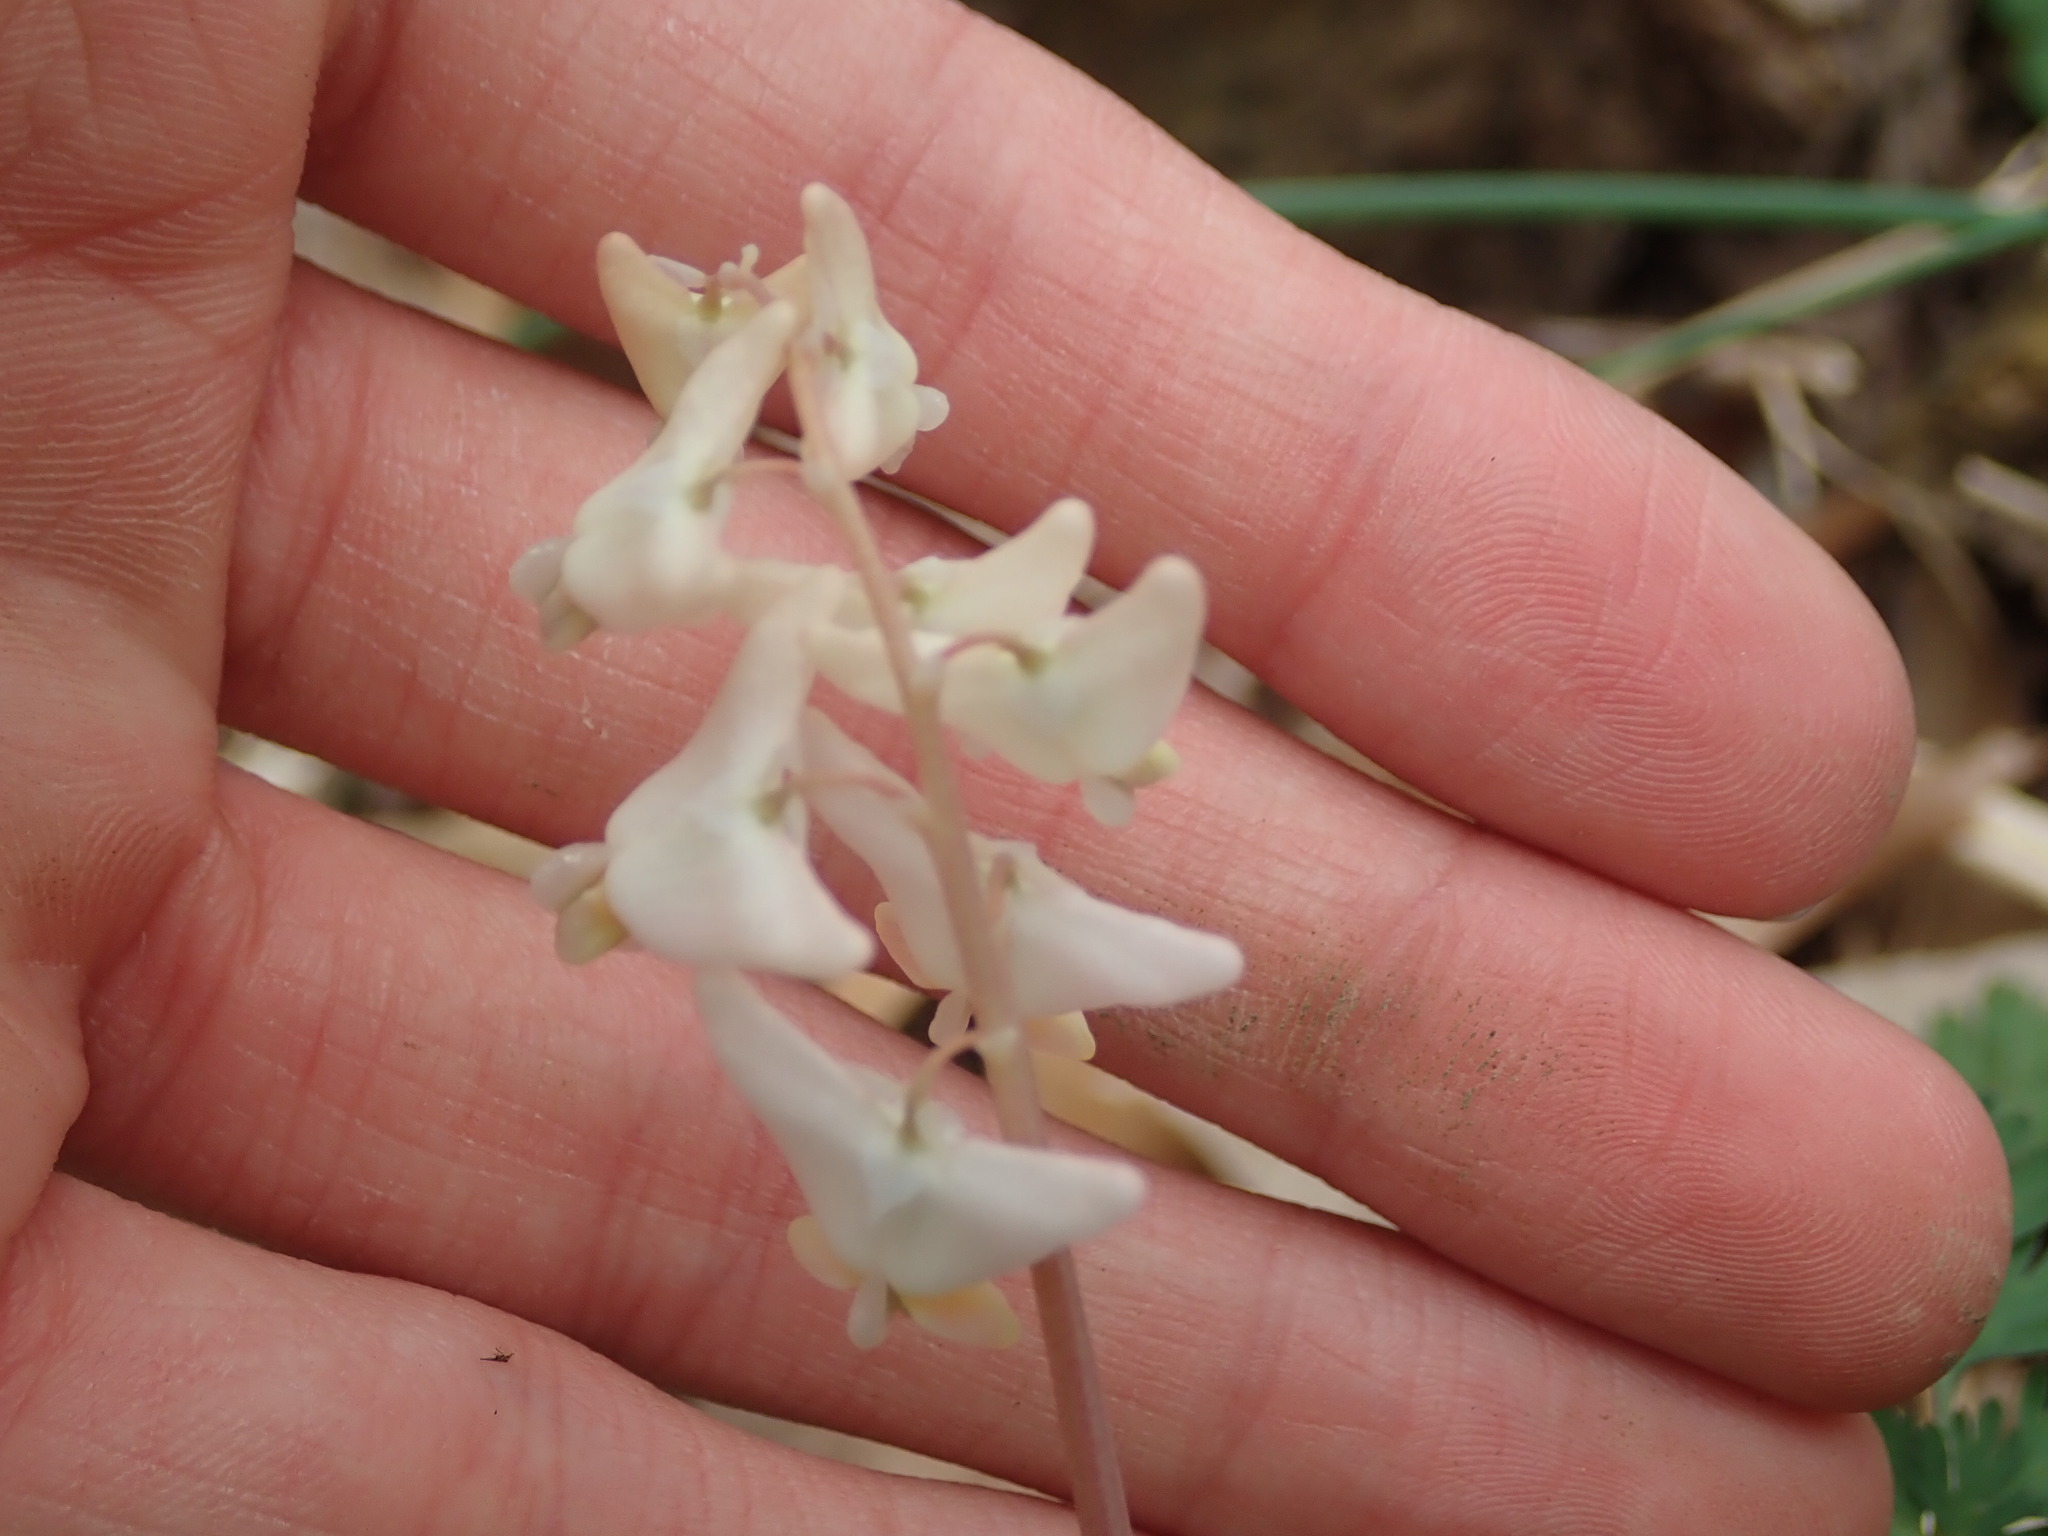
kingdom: Plantae
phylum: Tracheophyta
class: Magnoliopsida
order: Ranunculales
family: Papaveraceae
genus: Dicentra
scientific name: Dicentra cucullaria
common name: Dutchman's breeches
